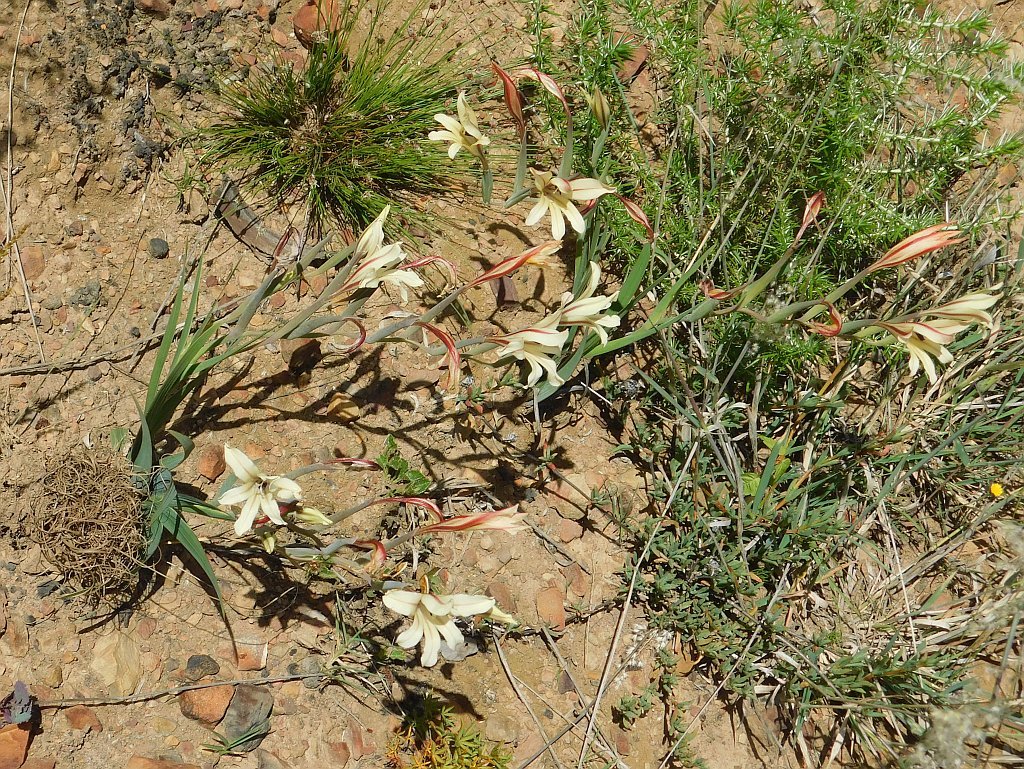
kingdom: Plantae
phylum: Tracheophyta
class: Liliopsida
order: Asparagales
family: Iridaceae
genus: Gladiolus
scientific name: Gladiolus floribundus
